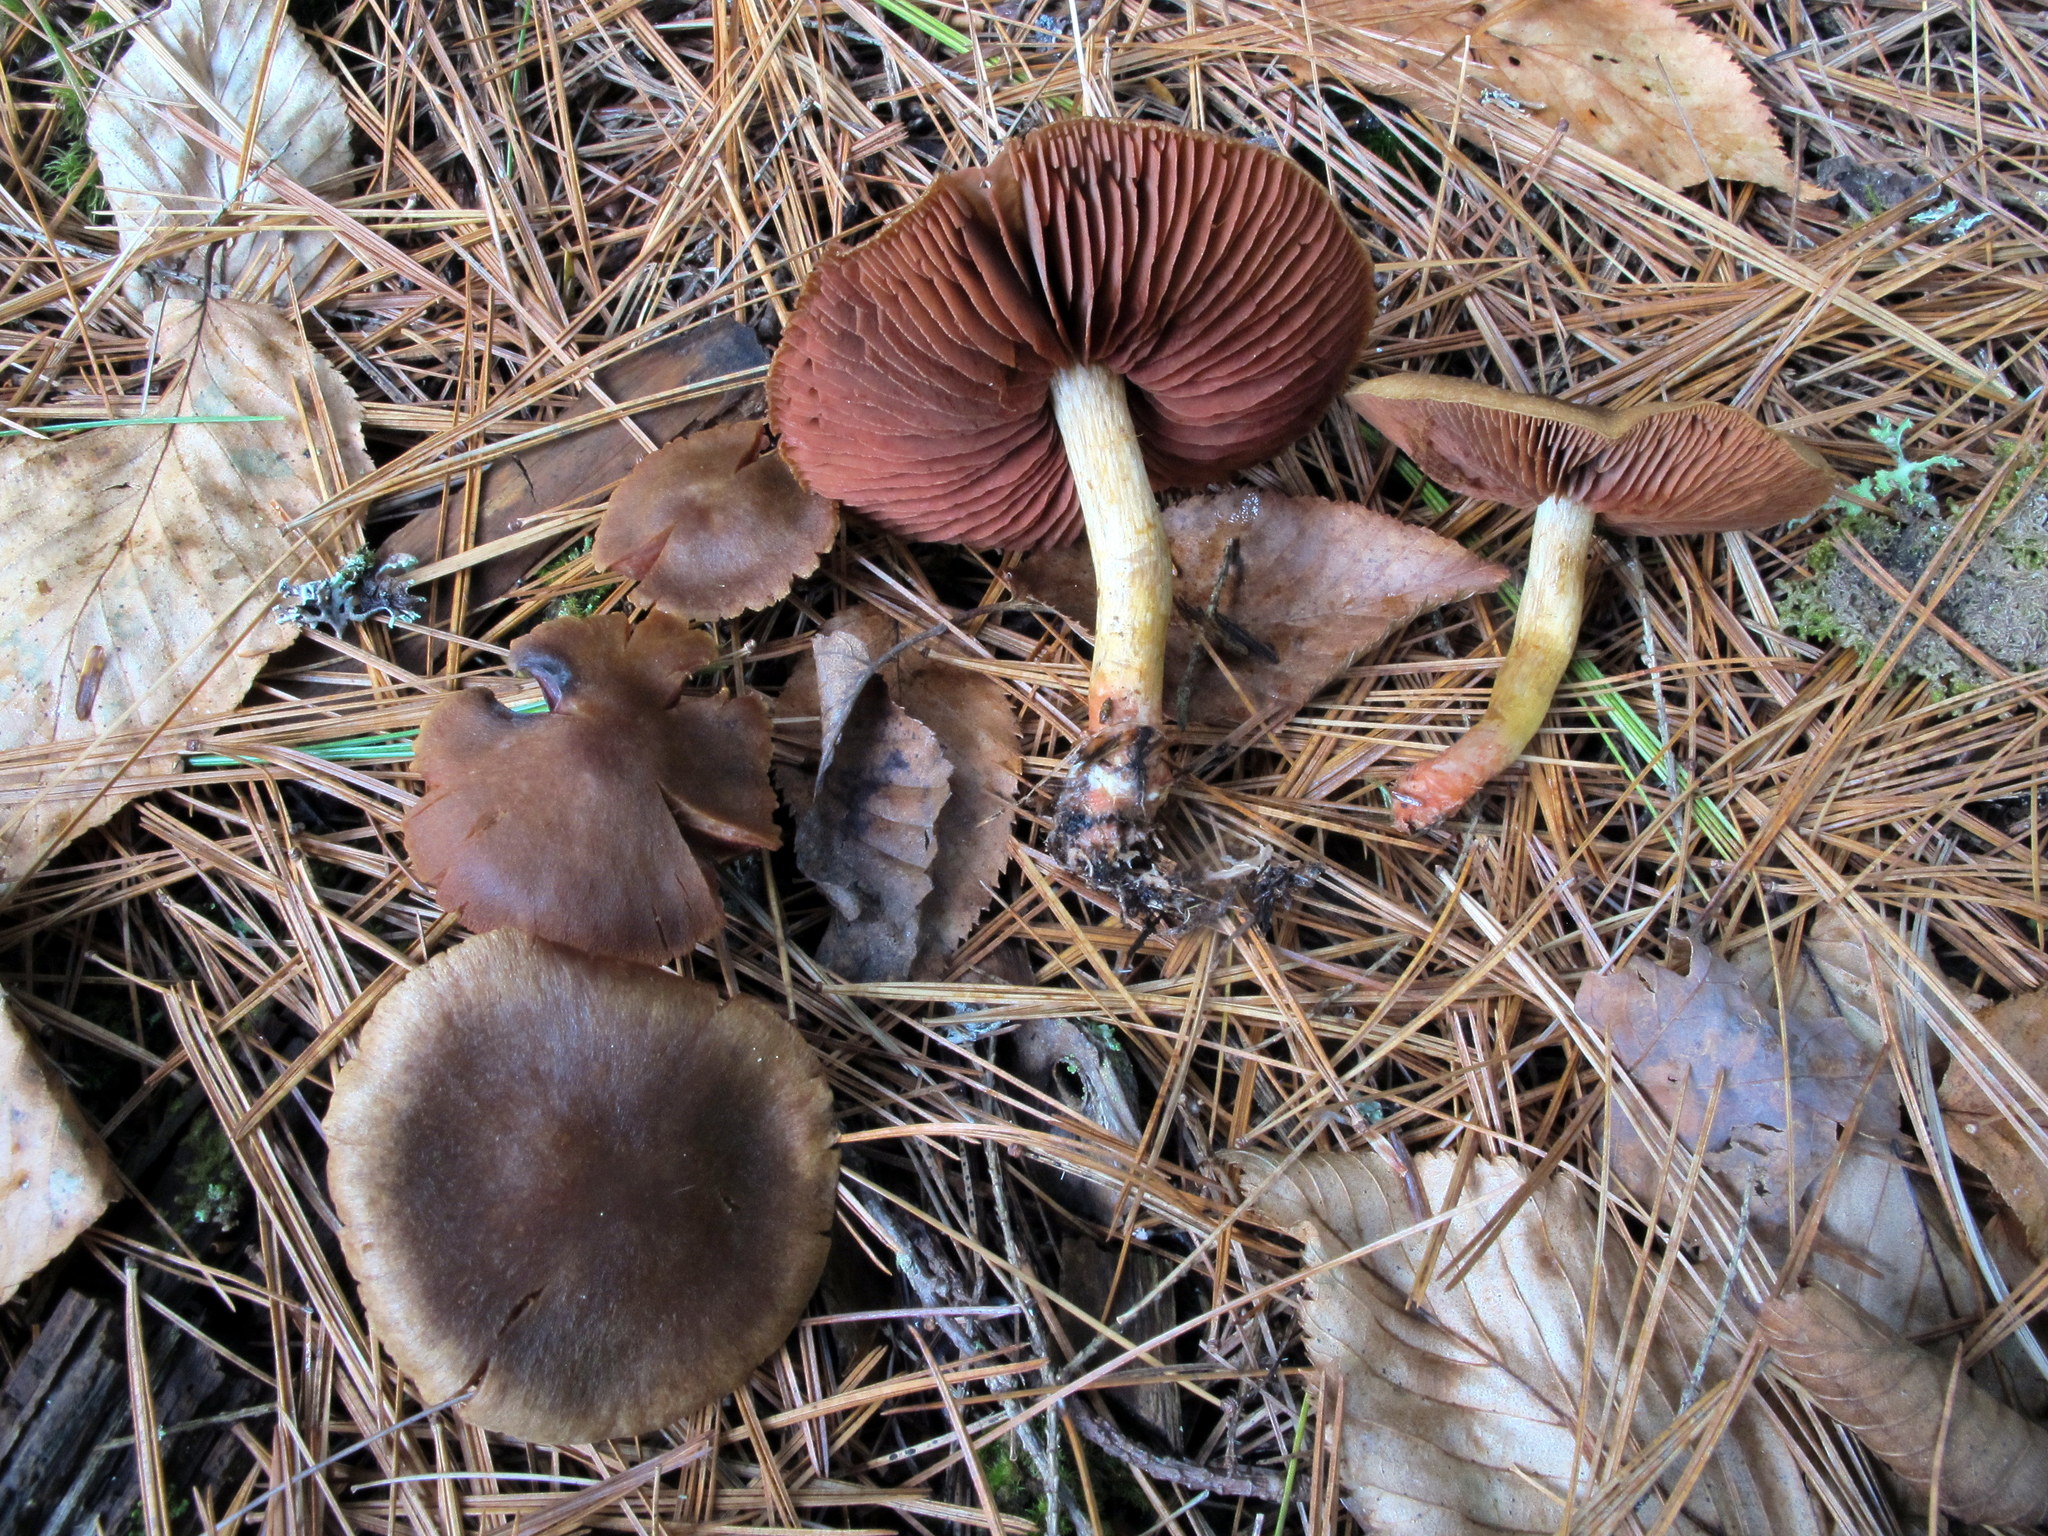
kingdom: Fungi
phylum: Basidiomycota
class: Agaricomycetes
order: Agaricales
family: Cortinariaceae
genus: Cortinarius
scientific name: Cortinarius semisanguineus
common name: Surprise webcap
